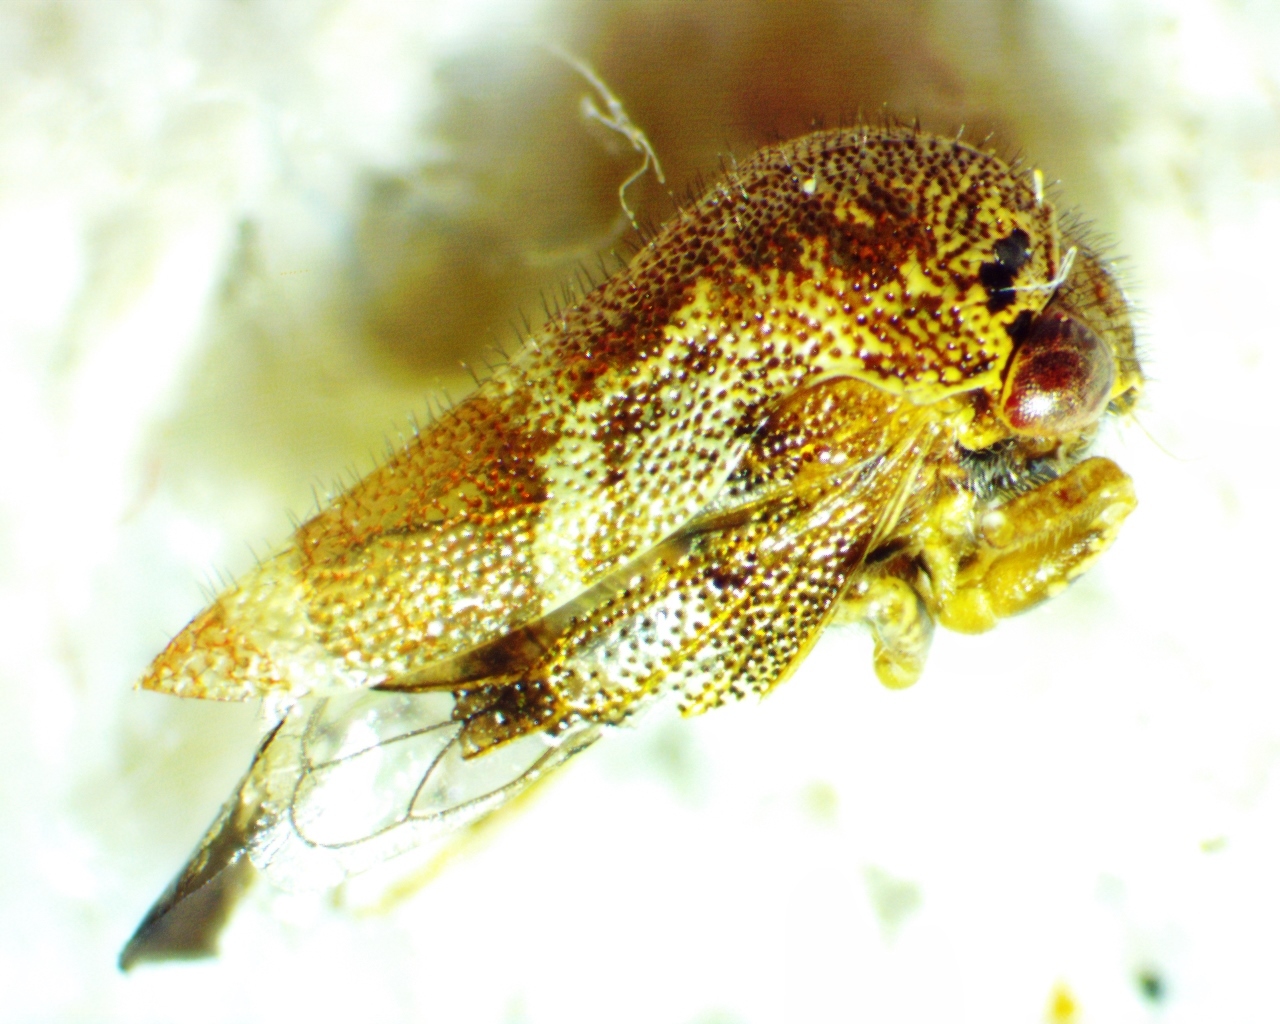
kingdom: Animalia
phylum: Arthropoda
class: Insecta
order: Hemiptera
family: Membracidae
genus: Ophiderma
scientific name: Ophiderma definita
